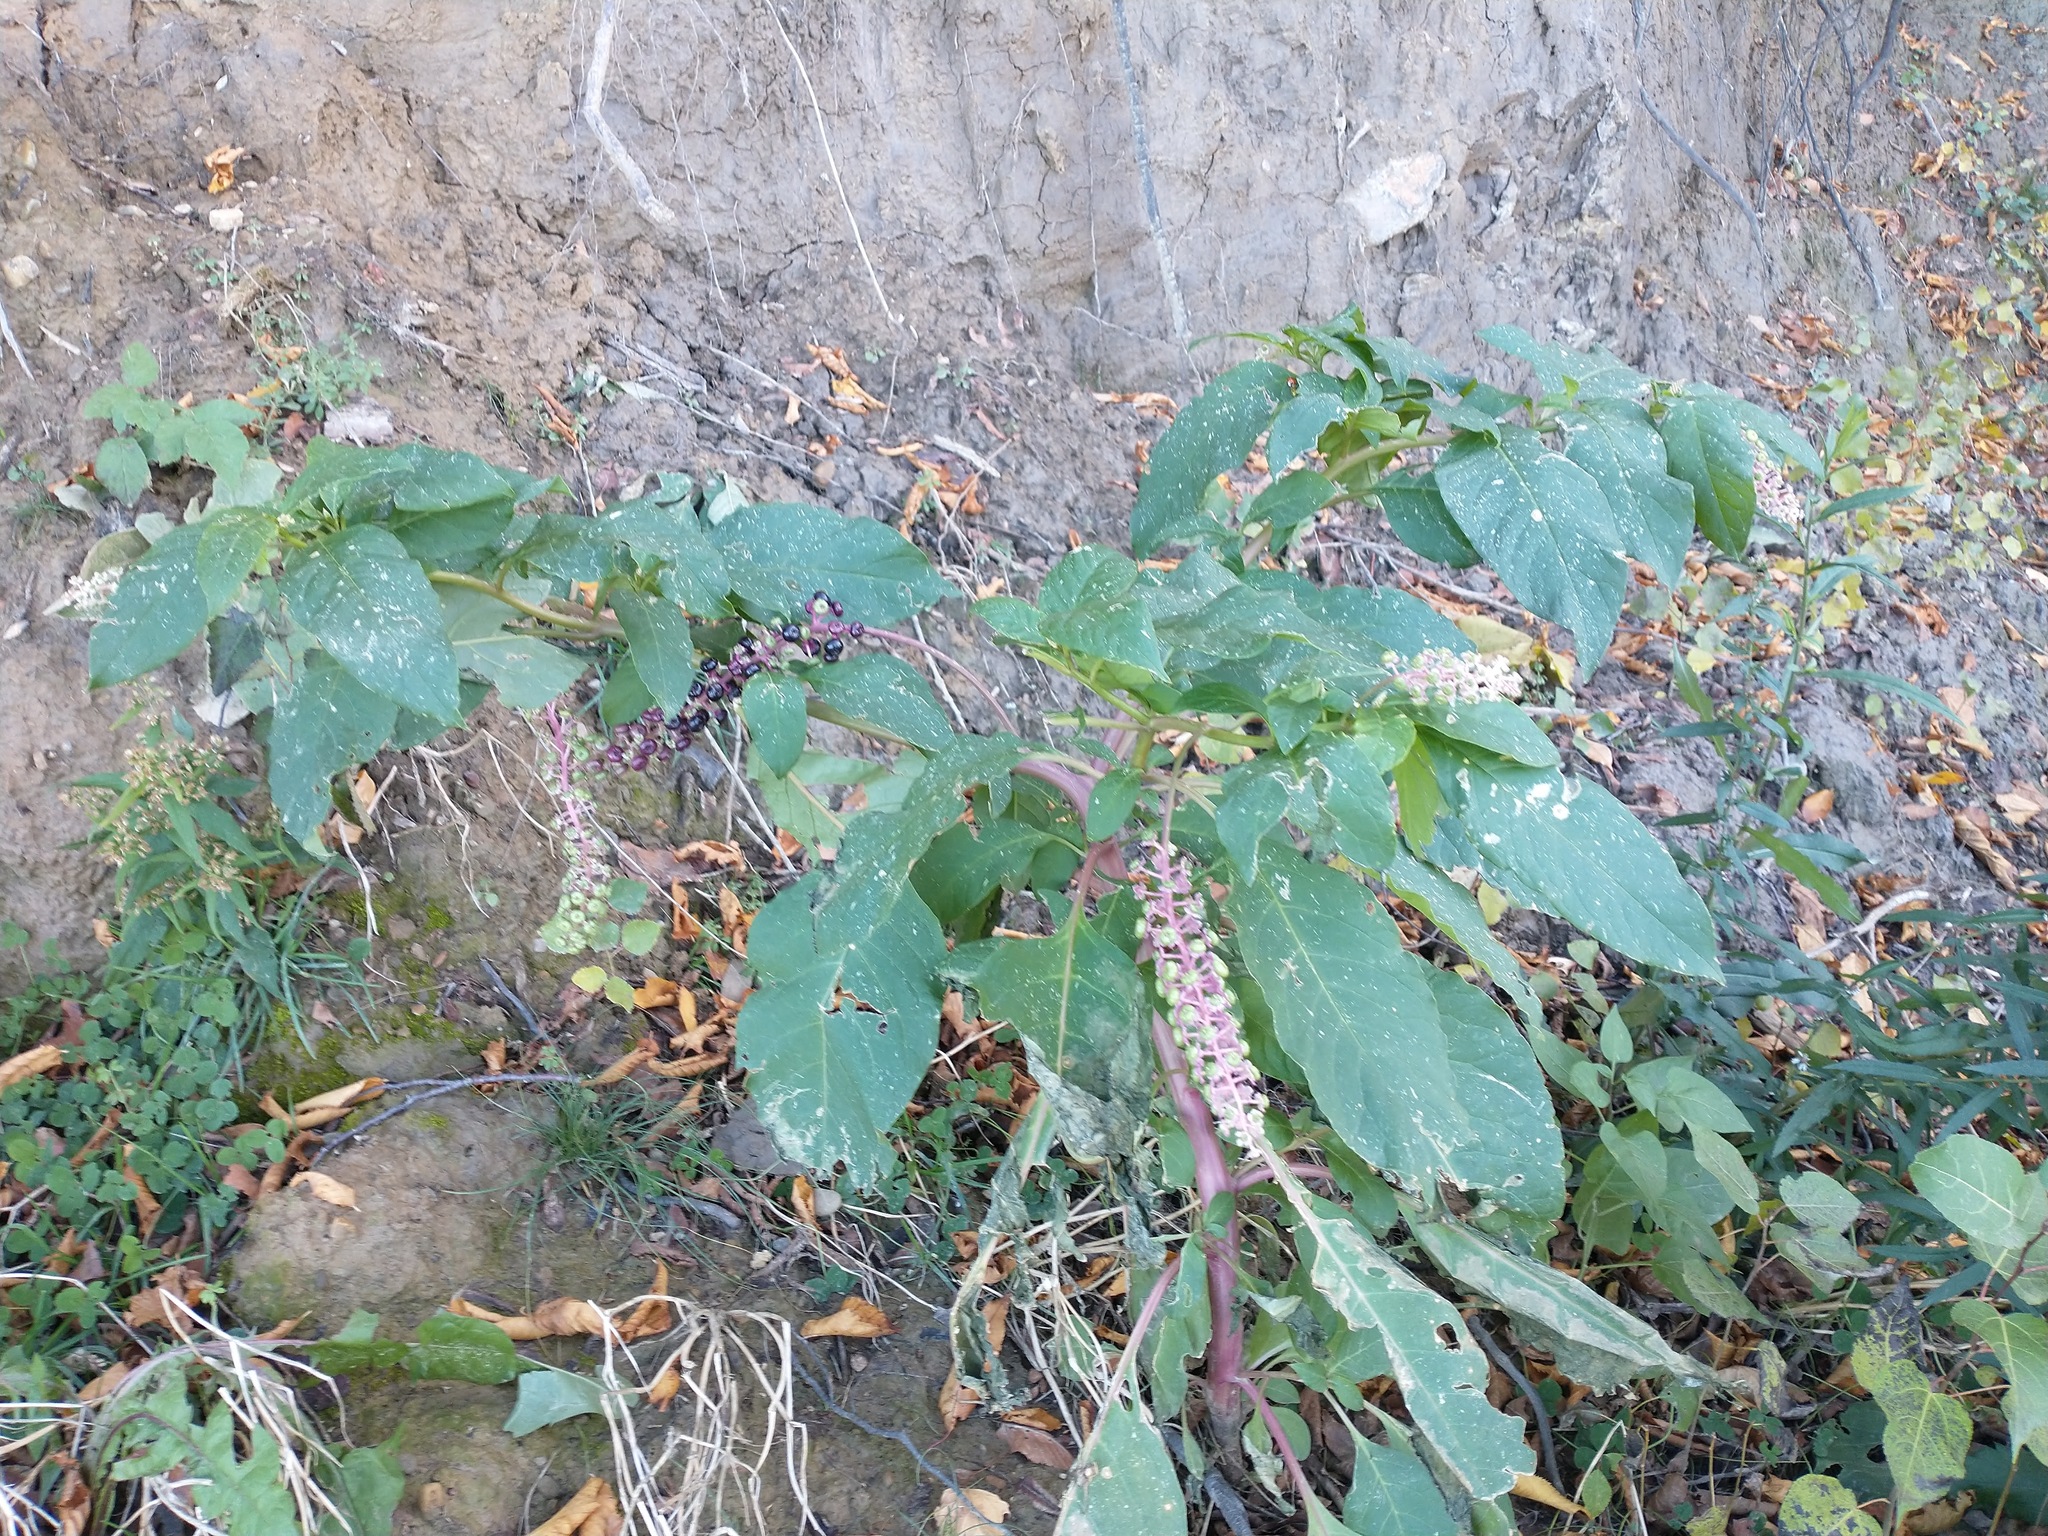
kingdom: Plantae
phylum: Tracheophyta
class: Magnoliopsida
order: Caryophyllales
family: Phytolaccaceae
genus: Phytolacca
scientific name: Phytolacca americana
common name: American pokeweed
